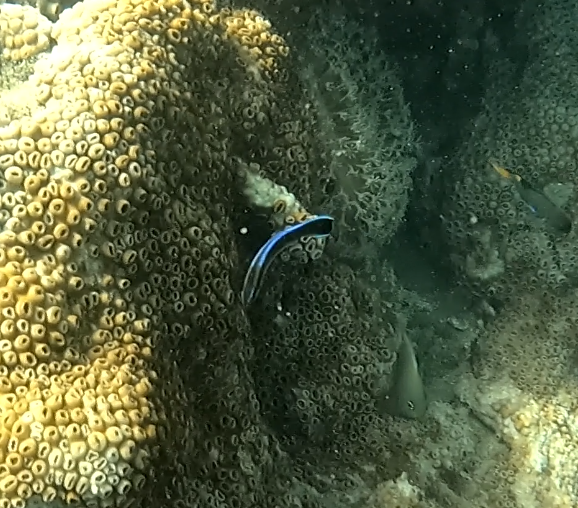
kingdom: Animalia
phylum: Chordata
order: Perciformes
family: Labridae
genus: Labroides
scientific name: Labroides dimidiatus
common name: Blue diesel wrasse
